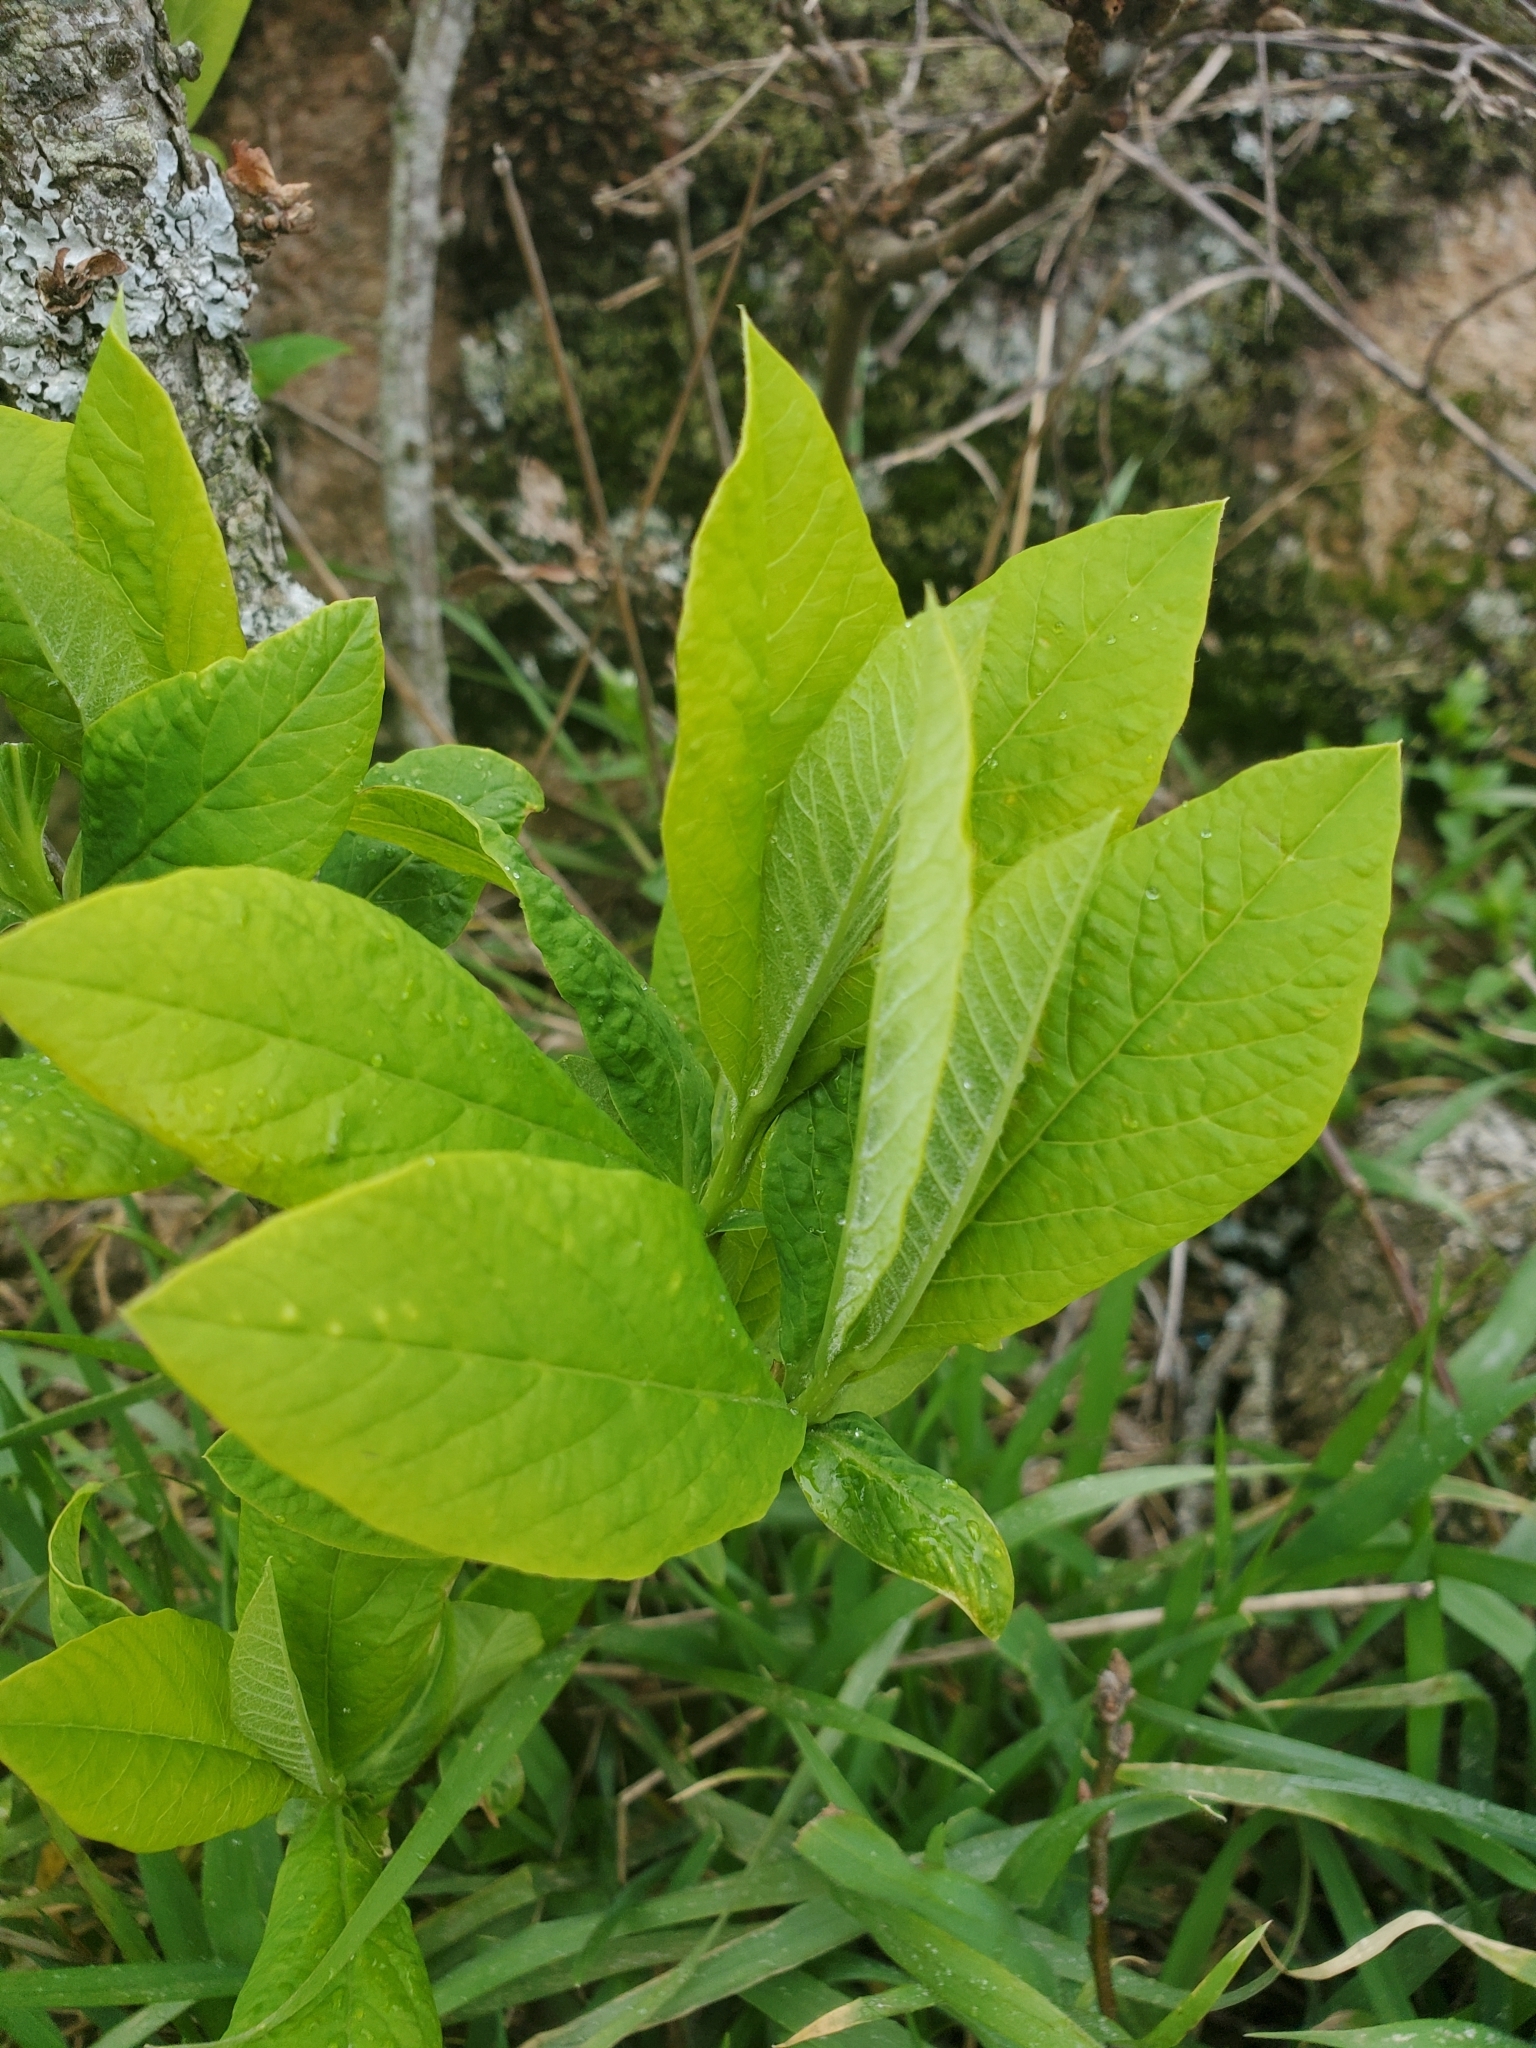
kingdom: Plantae
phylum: Tracheophyta
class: Magnoliopsida
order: Rosales
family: Rosaceae
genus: Oemleria
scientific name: Oemleria cerasiformis
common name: Osoberry
